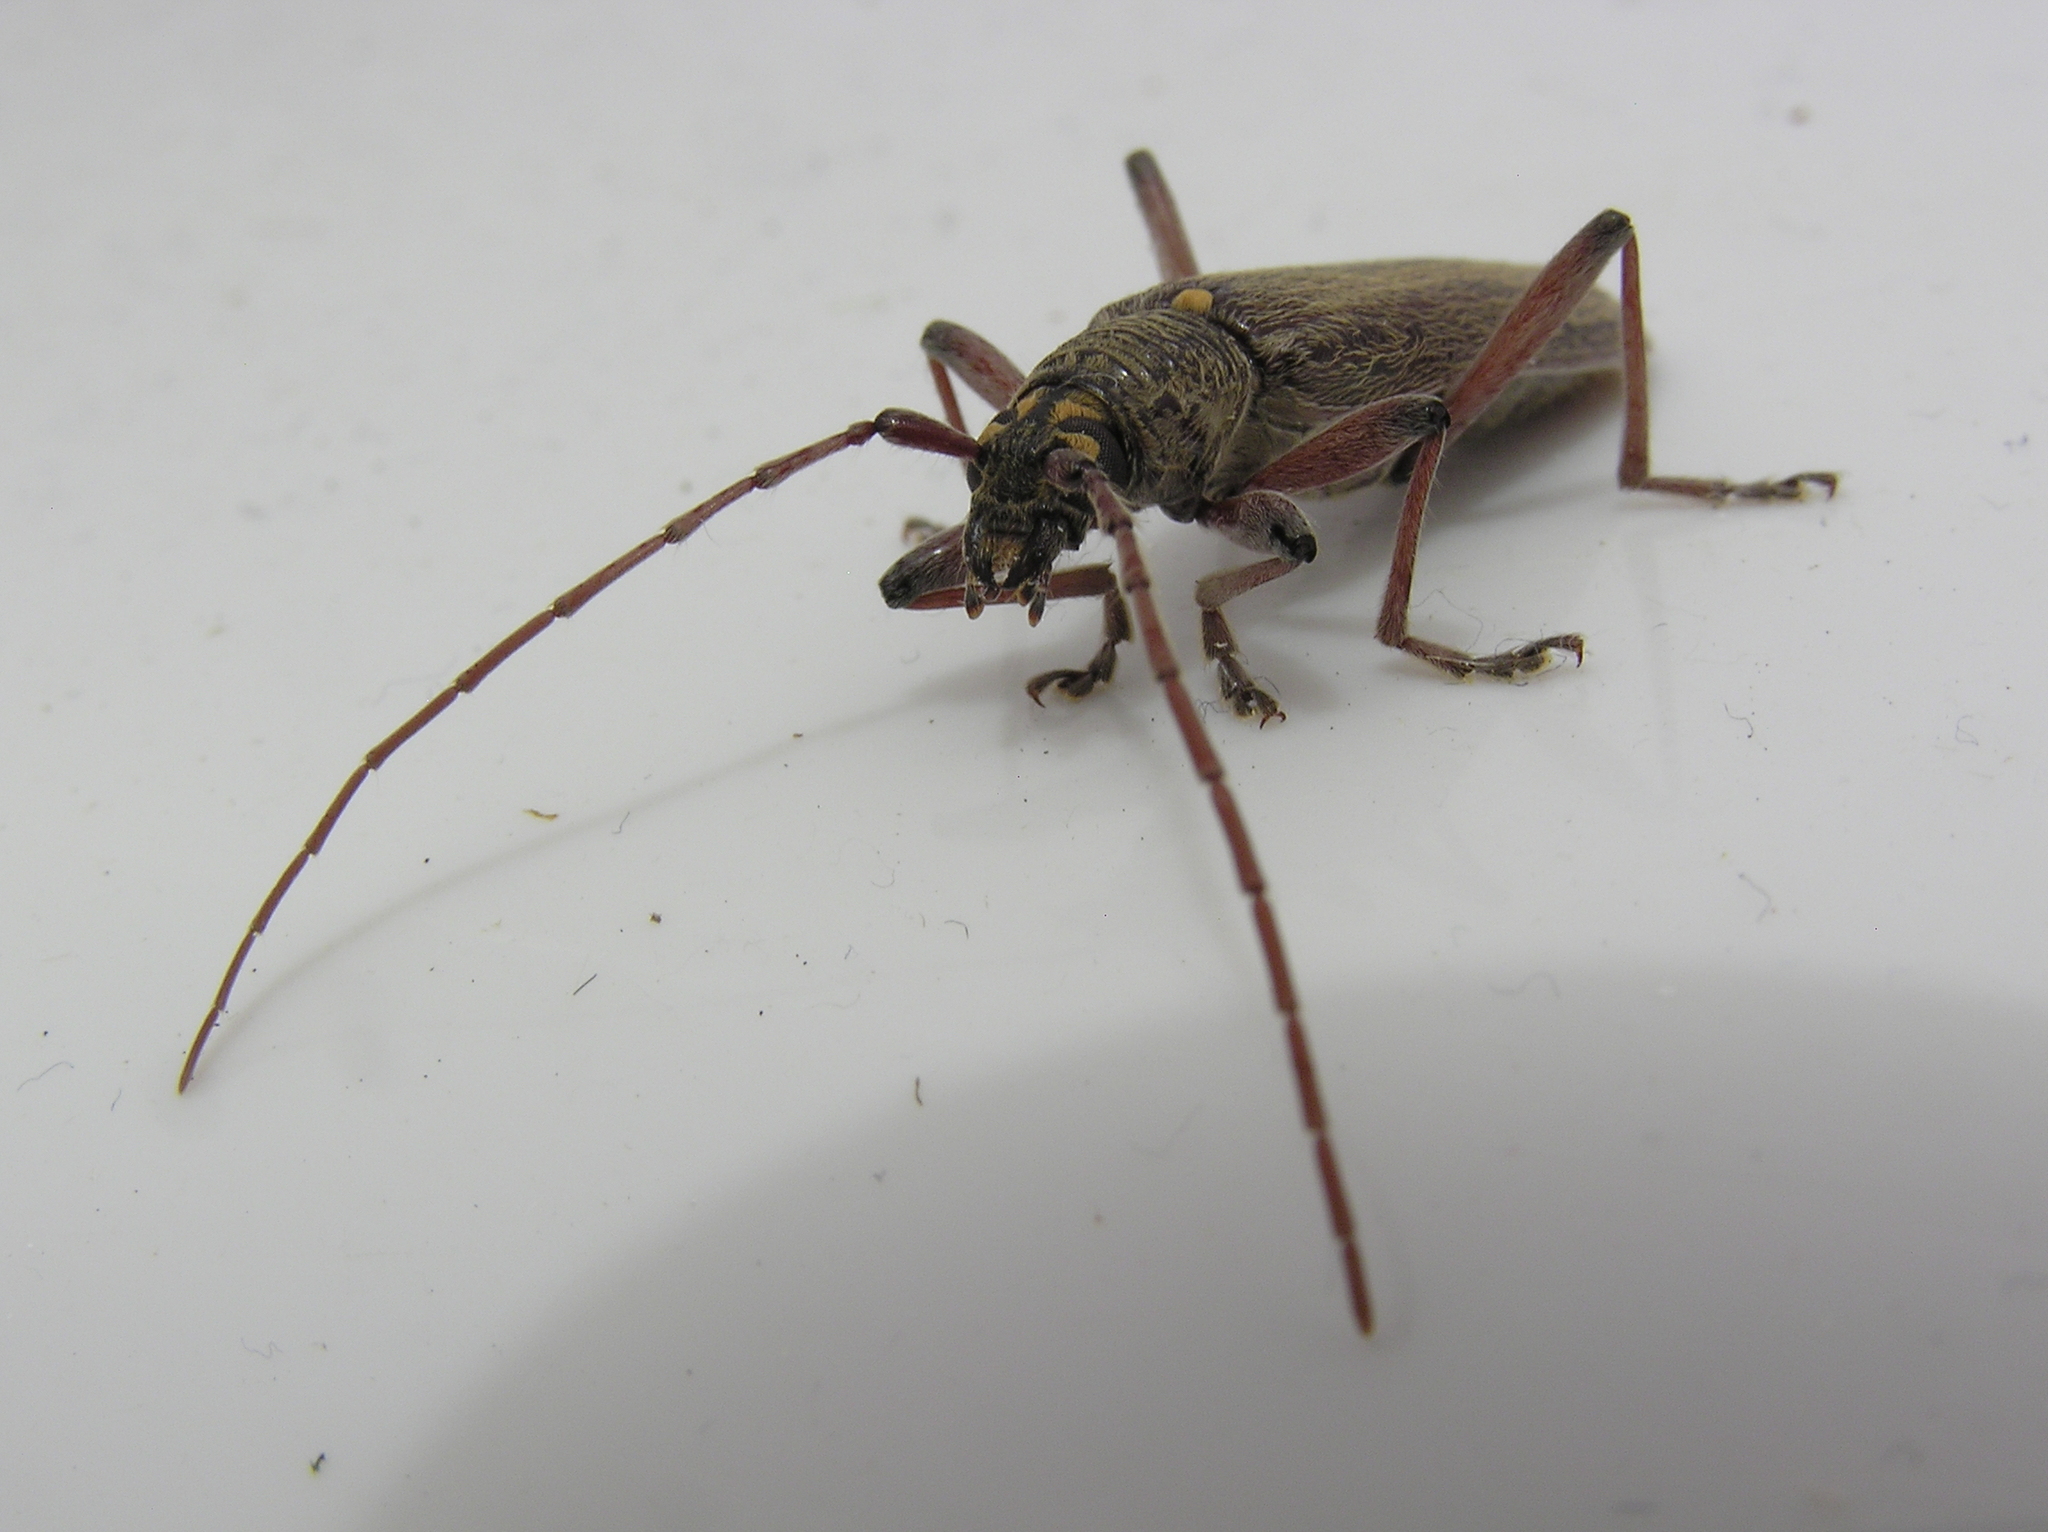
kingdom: Animalia
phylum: Arthropoda
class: Insecta
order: Coleoptera
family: Cerambycidae
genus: Oemona
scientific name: Oemona hirta
